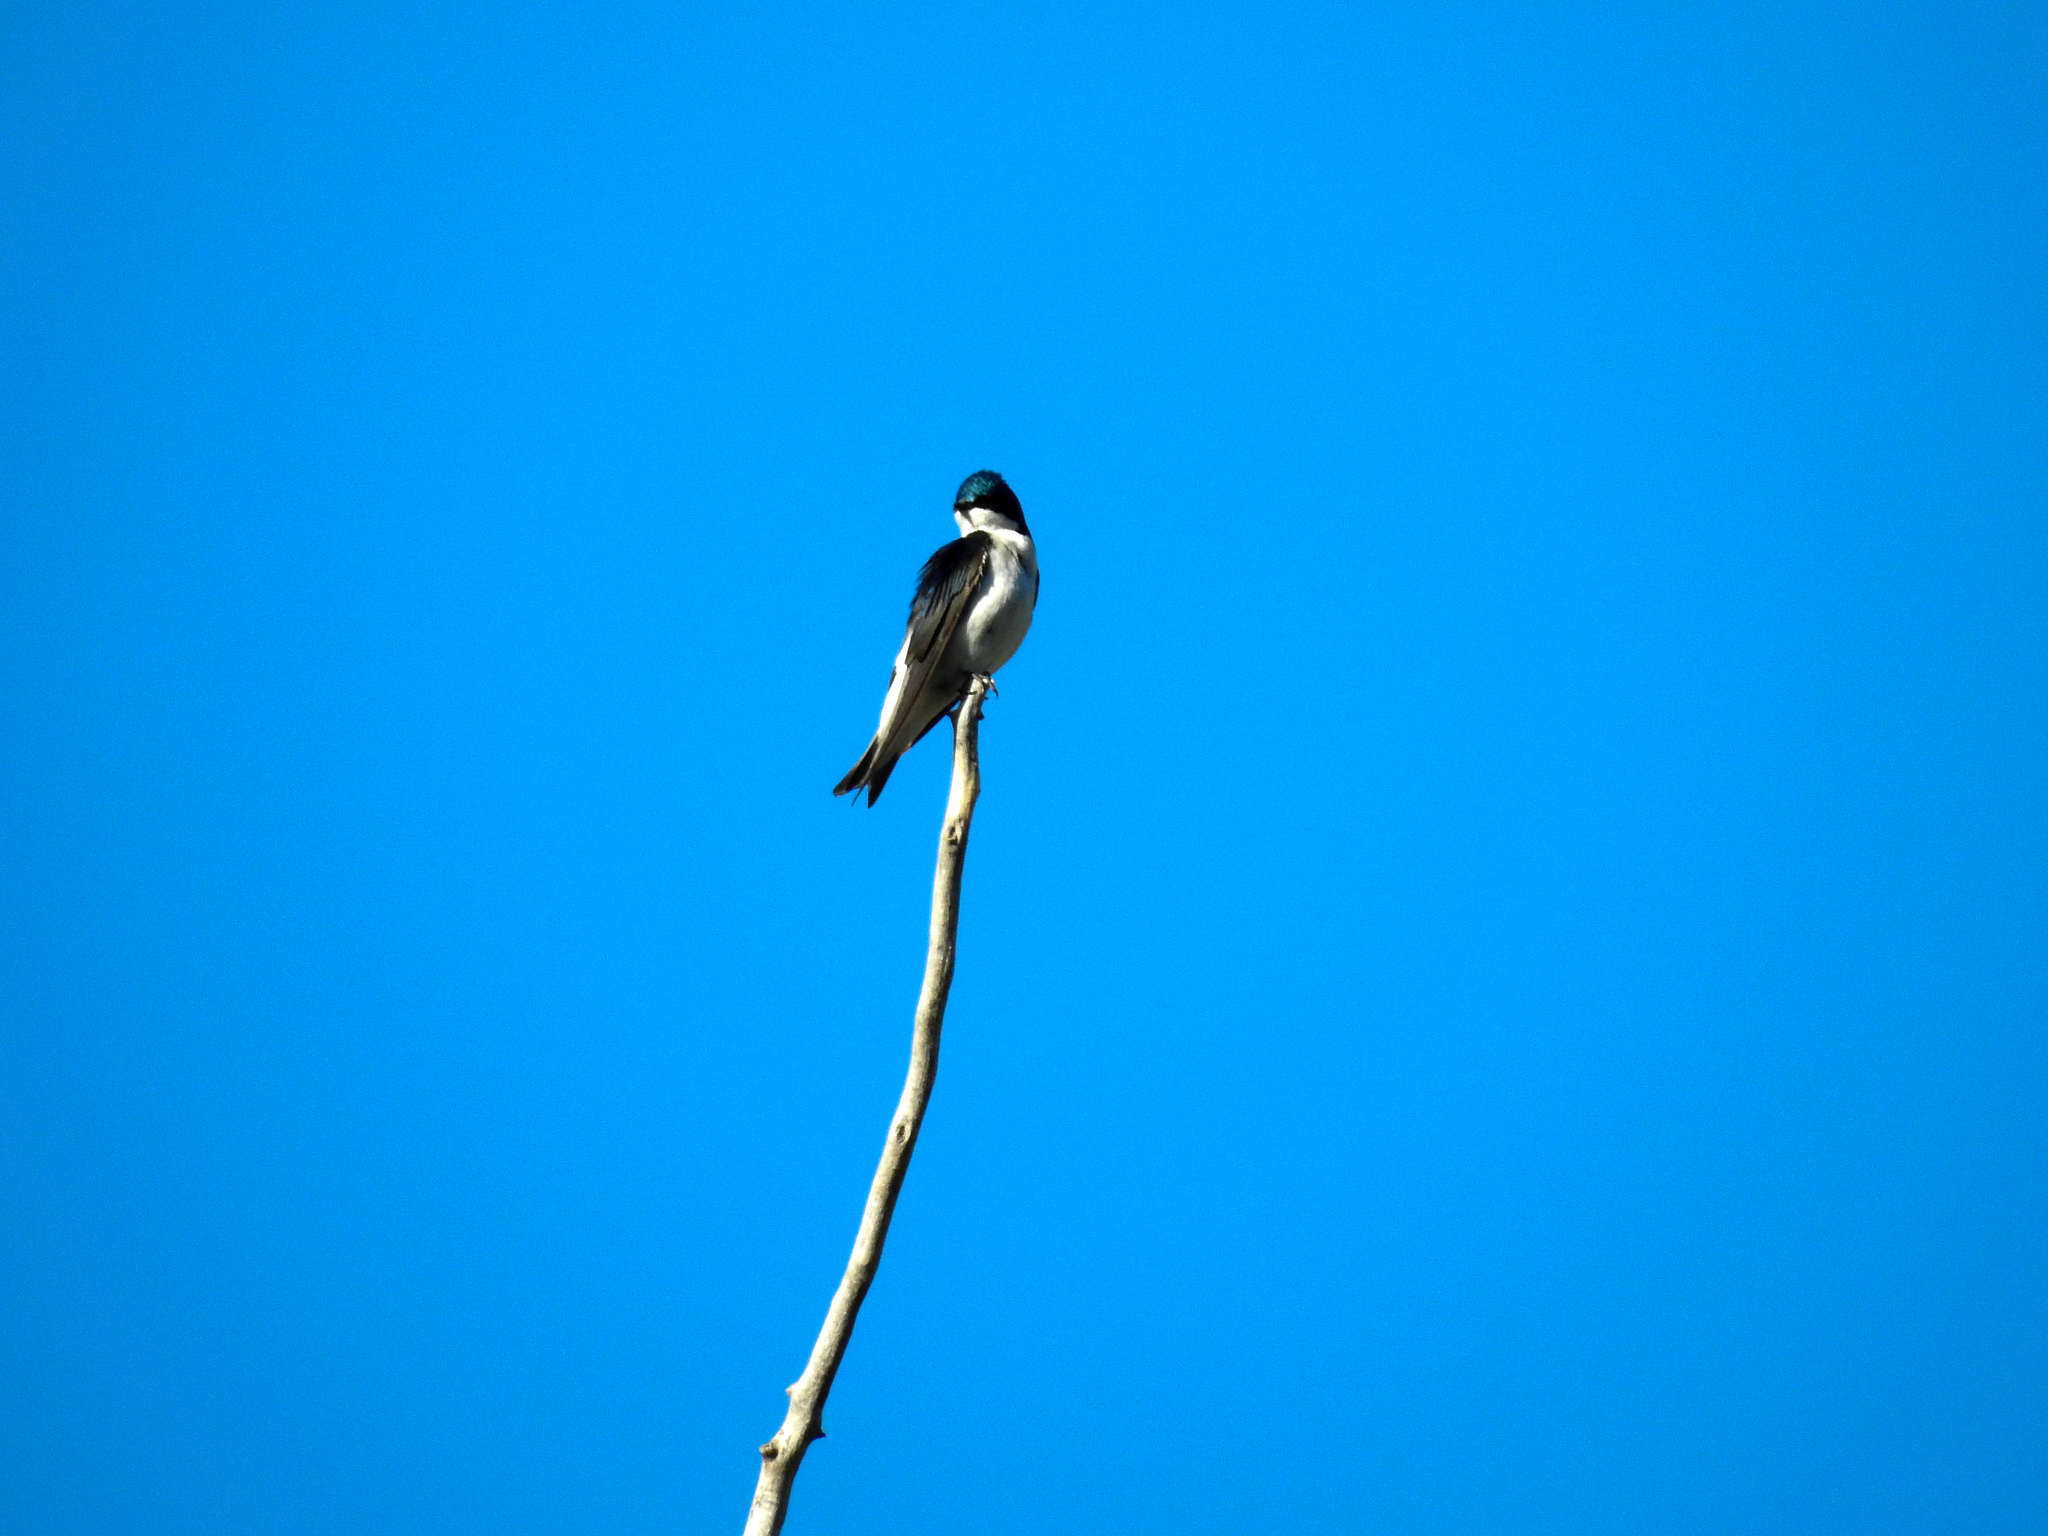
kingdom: Animalia
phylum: Chordata
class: Aves
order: Passeriformes
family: Hirundinidae
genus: Tachycineta
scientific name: Tachycineta bicolor
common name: Tree swallow
